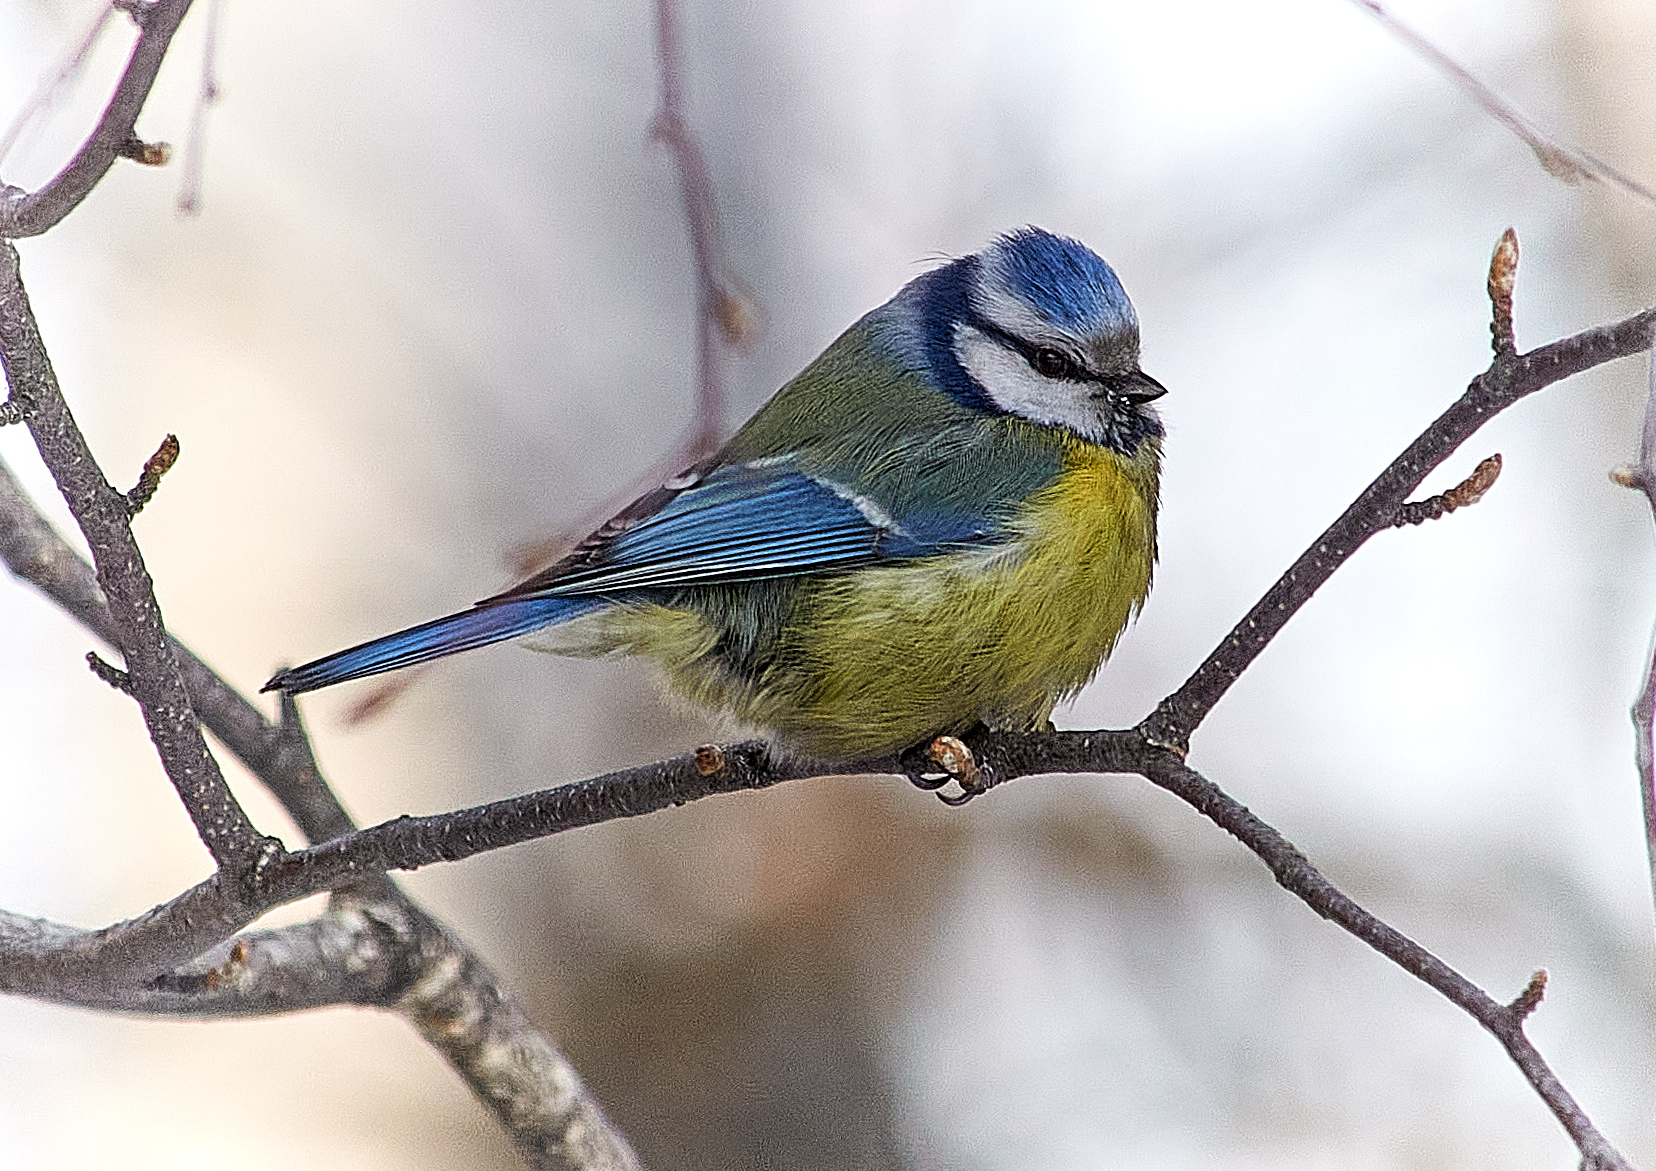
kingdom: Animalia
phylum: Chordata
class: Aves
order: Passeriformes
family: Paridae
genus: Cyanistes
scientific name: Cyanistes caeruleus
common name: Eurasian blue tit
